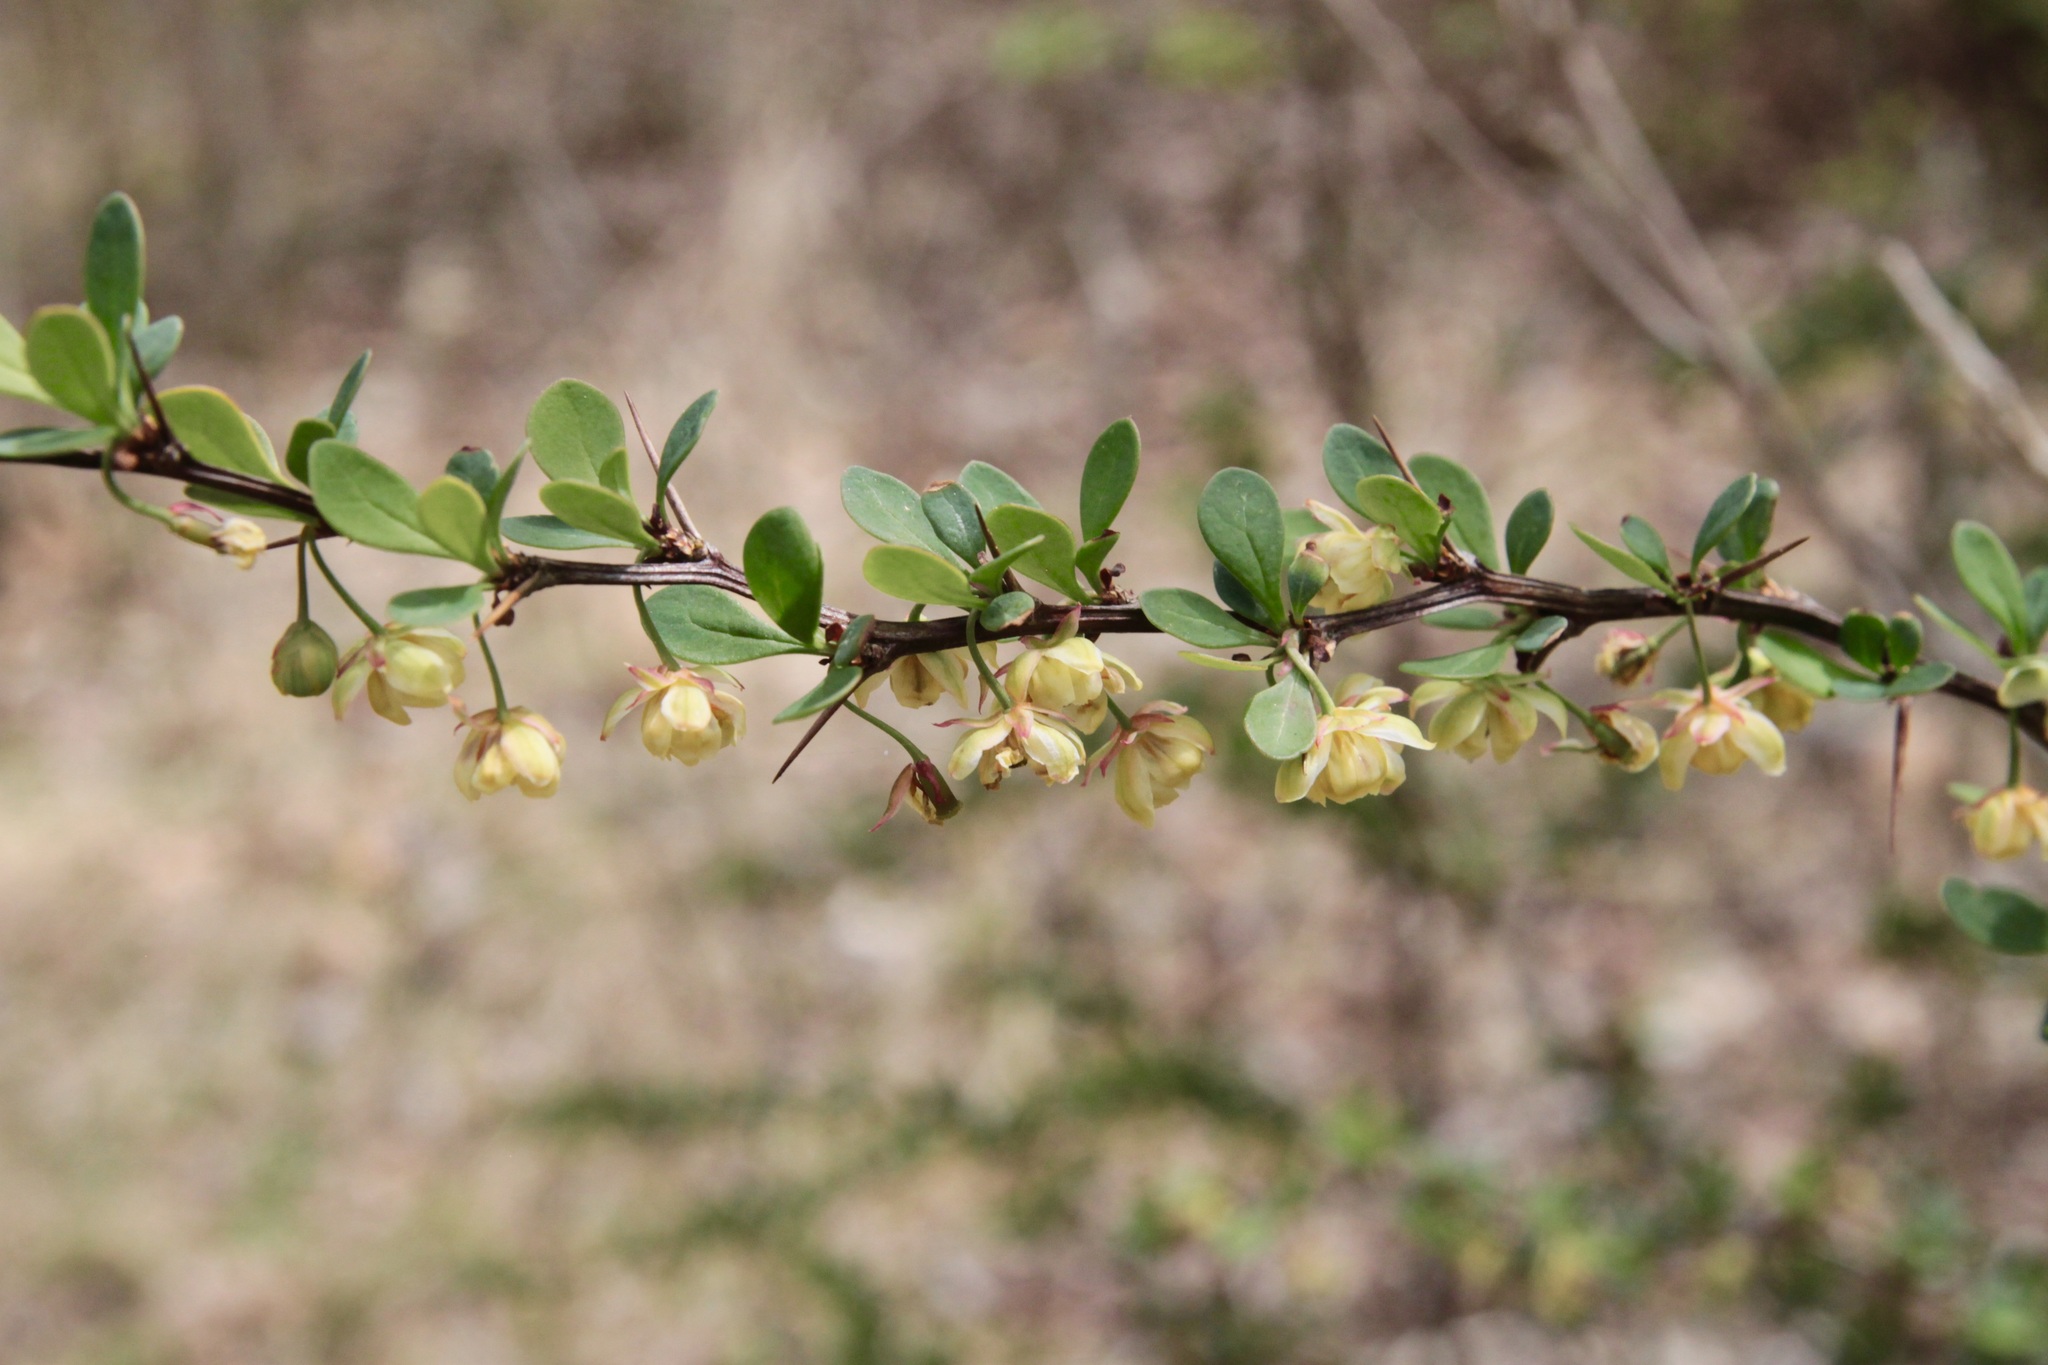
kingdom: Plantae
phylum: Tracheophyta
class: Magnoliopsida
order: Ranunculales
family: Berberidaceae
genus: Berberis
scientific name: Berberis thunbergii
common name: Japanese barberry
